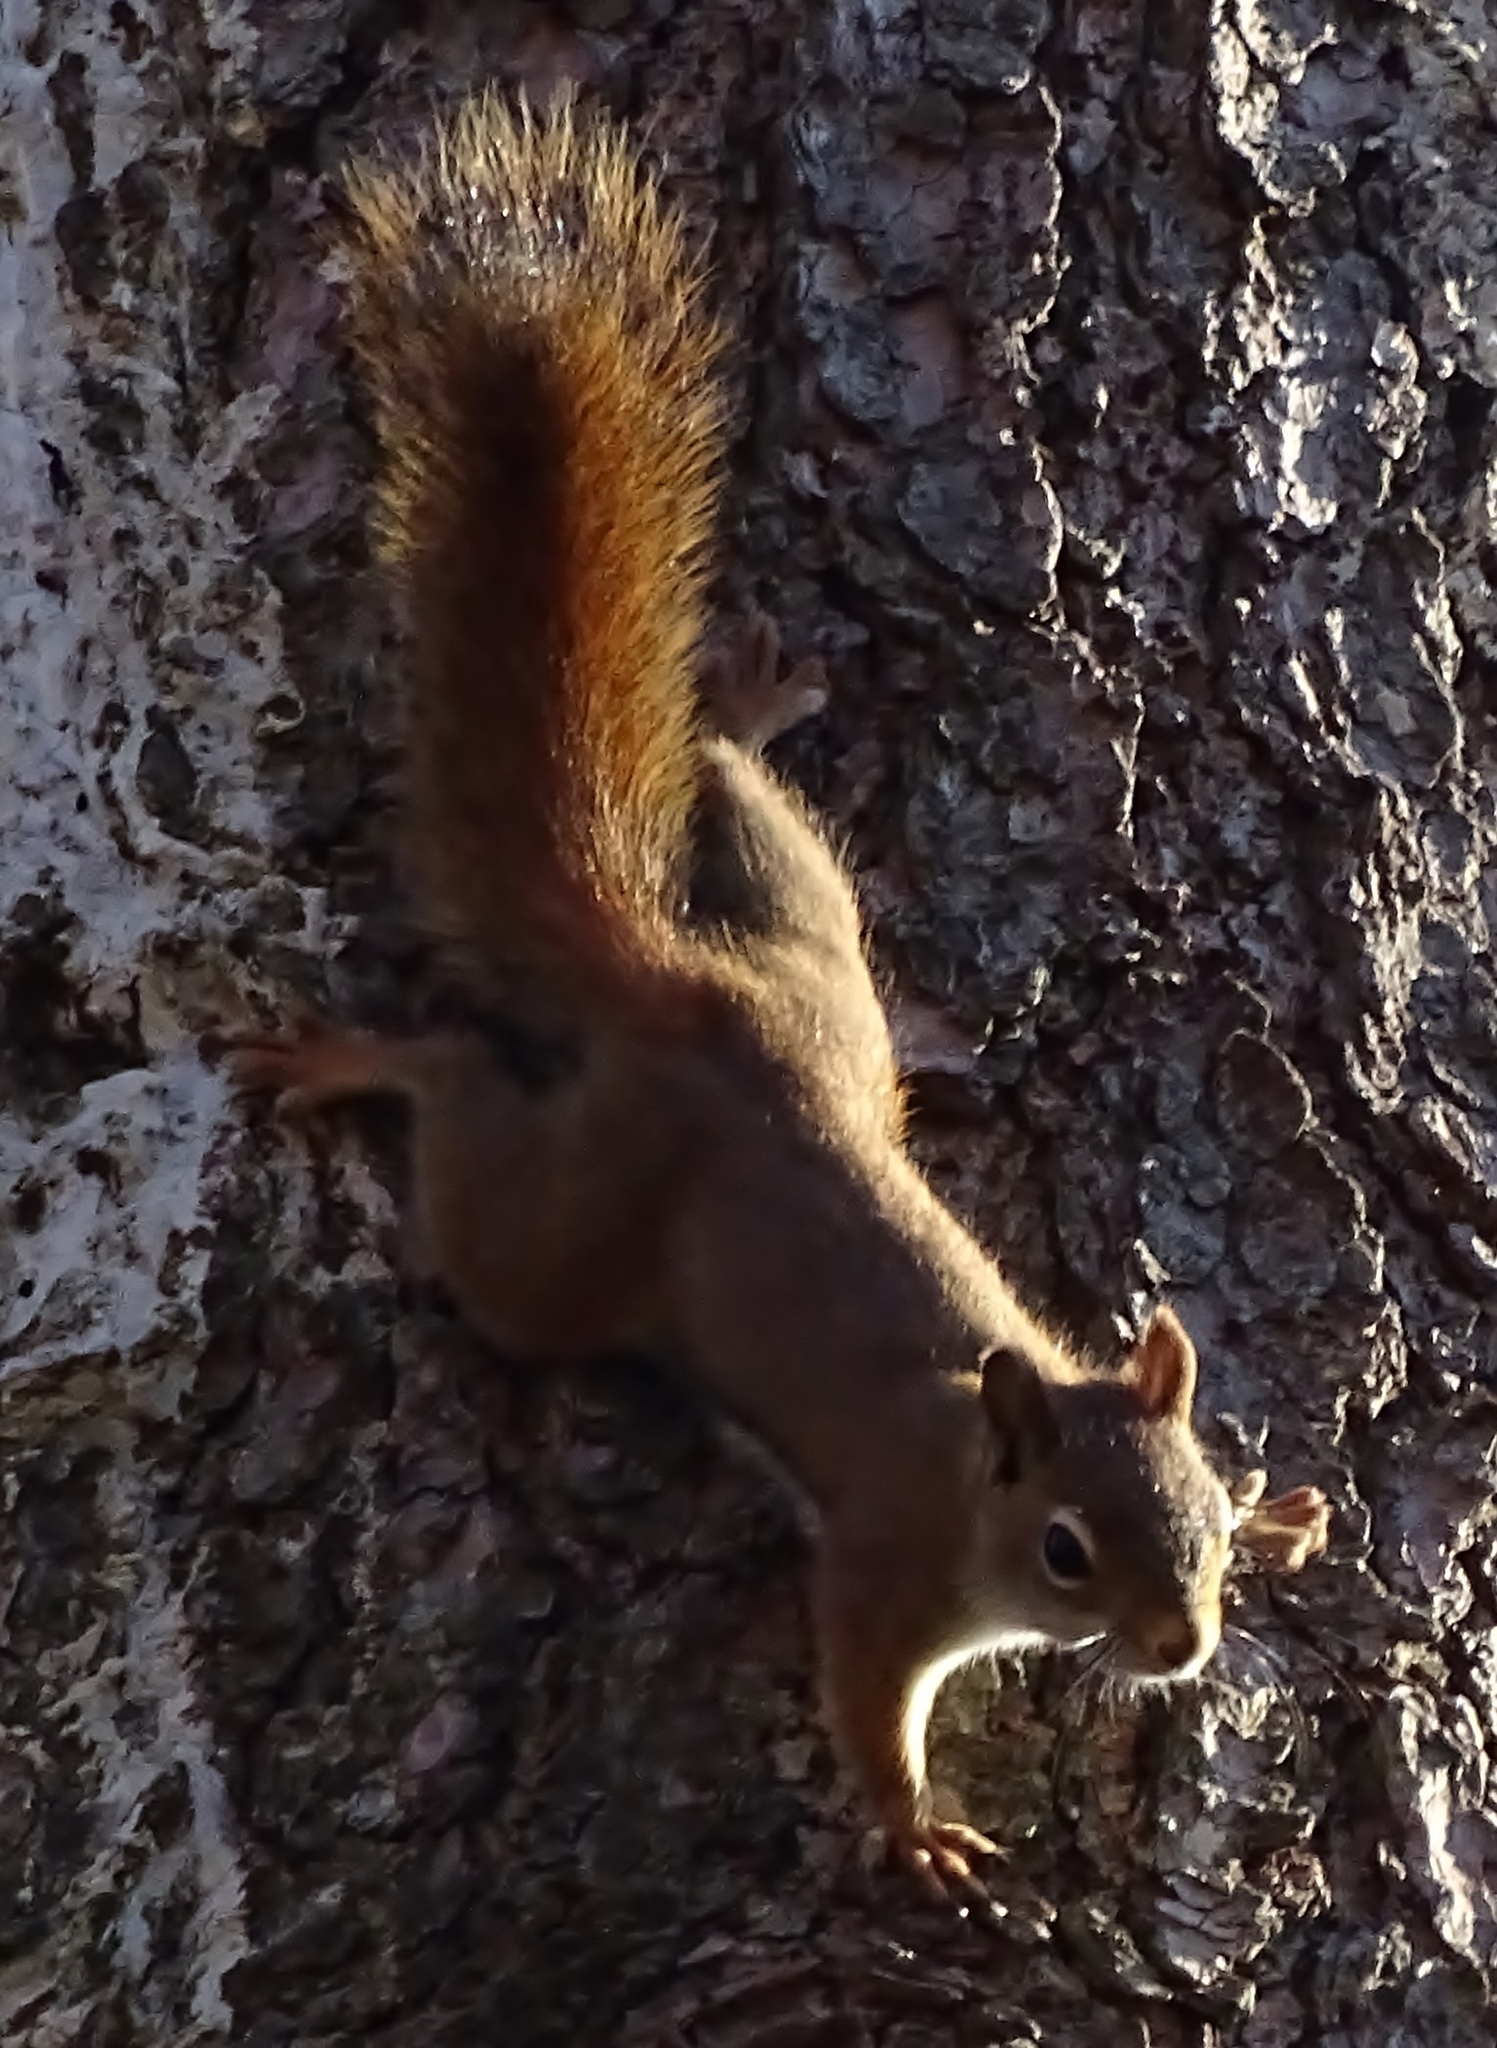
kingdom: Animalia
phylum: Chordata
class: Mammalia
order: Rodentia
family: Sciuridae
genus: Tamiasciurus
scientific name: Tamiasciurus hudsonicus
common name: Red squirrel
